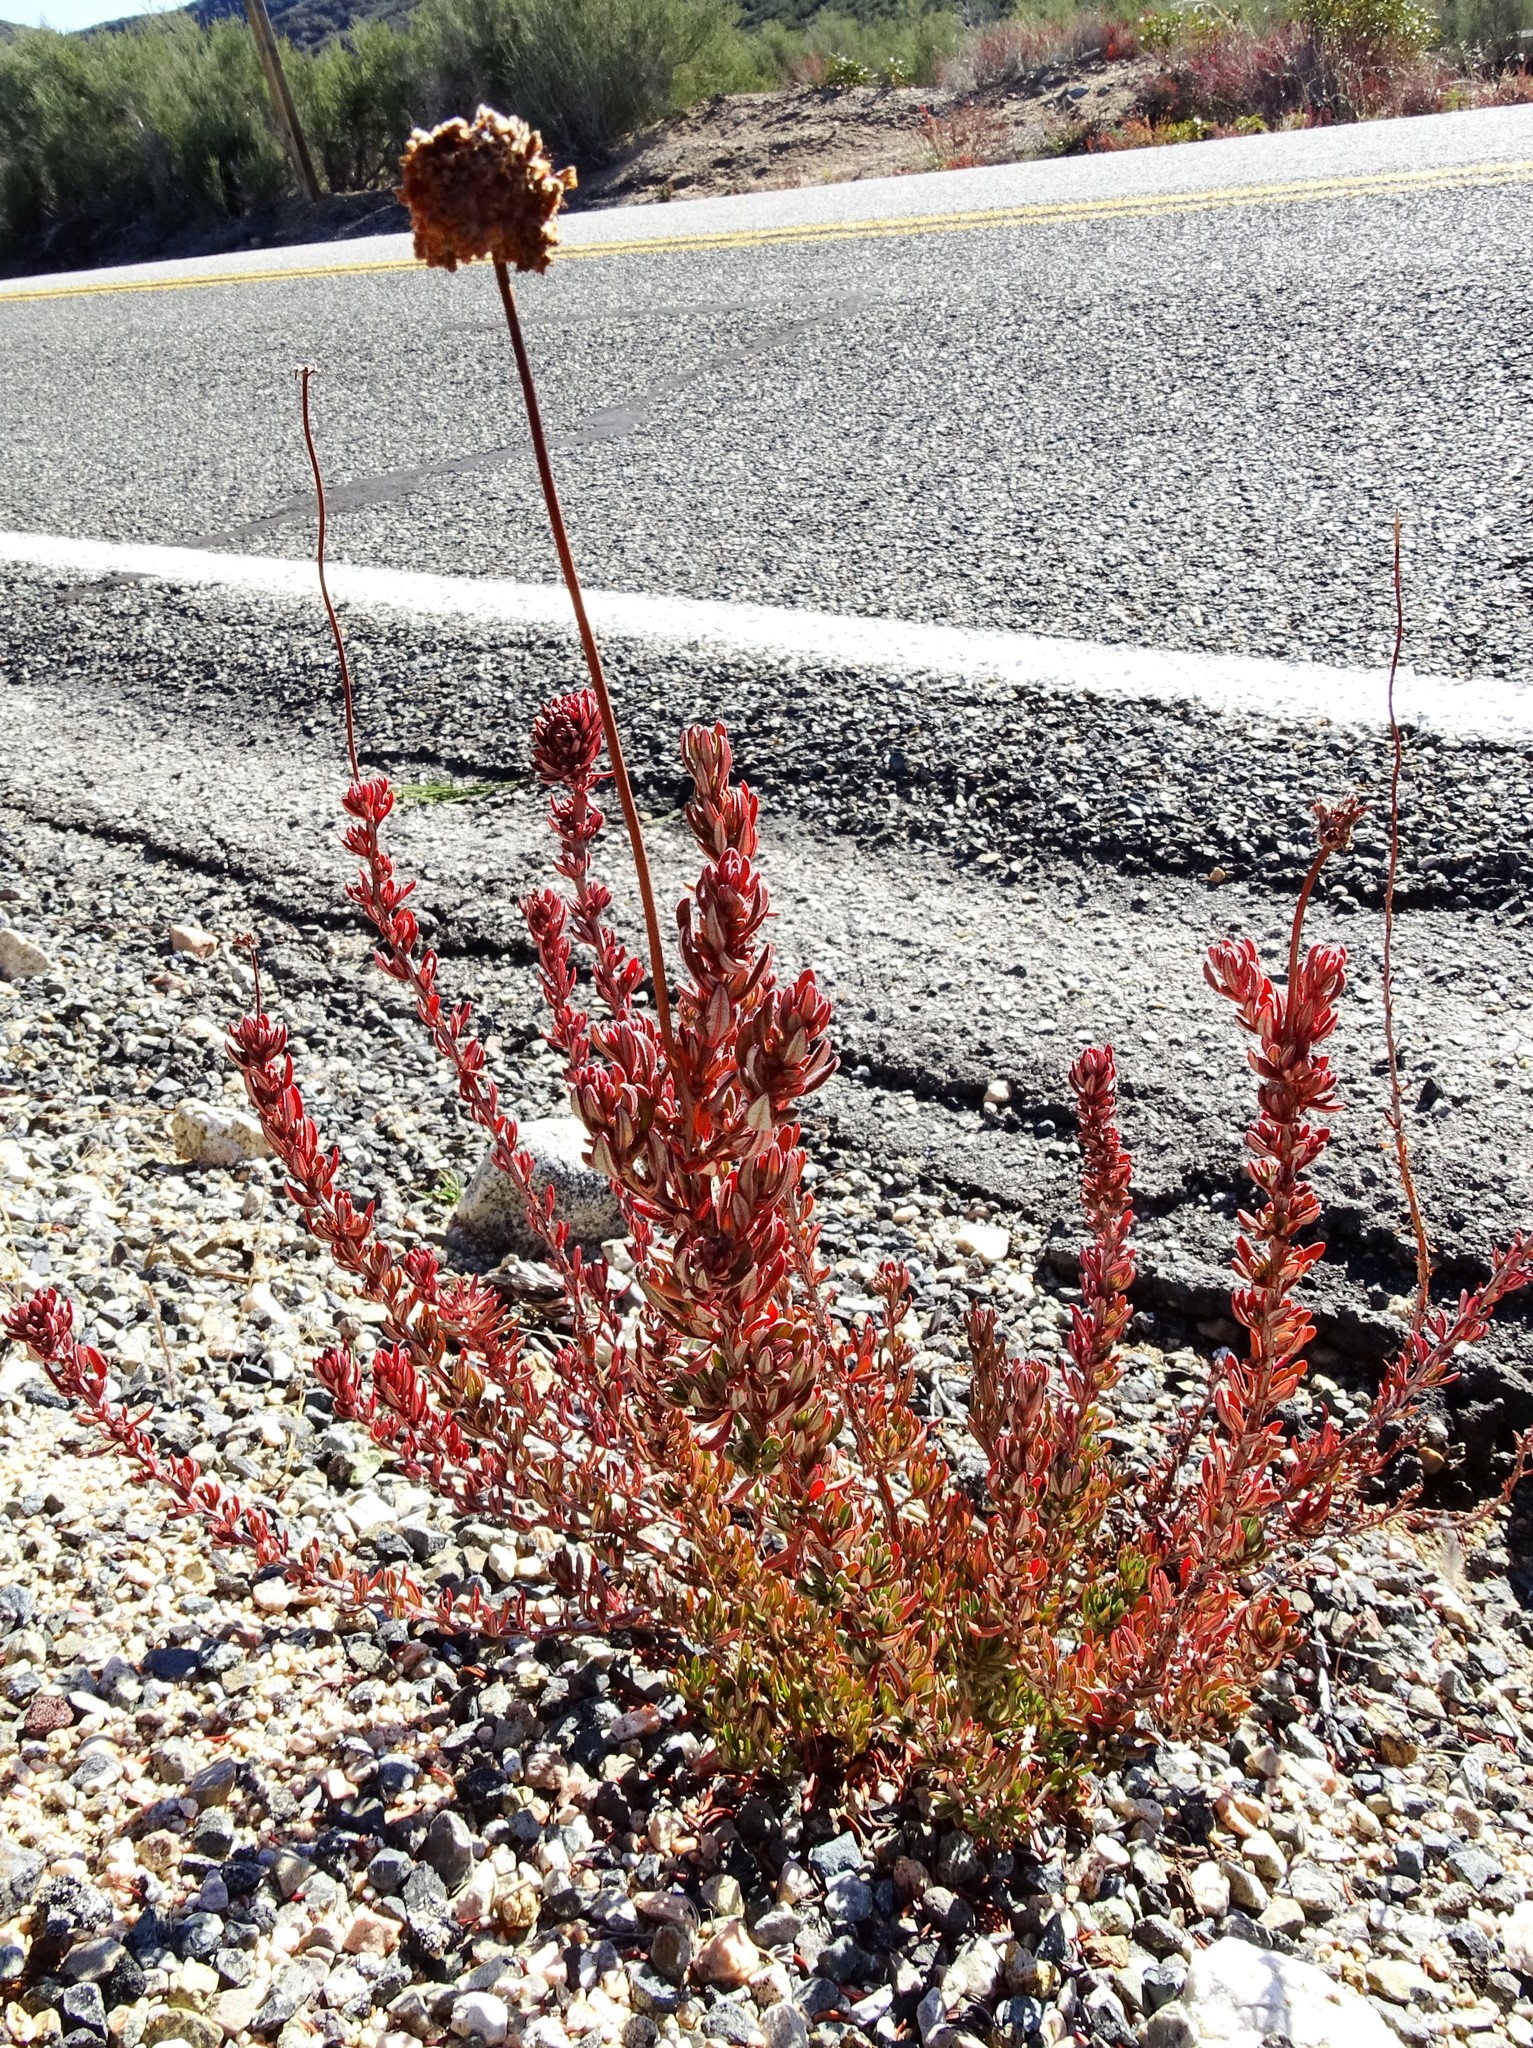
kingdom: Plantae
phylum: Tracheophyta
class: Magnoliopsida
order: Caryophyllales
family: Polygonaceae
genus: Eriogonum
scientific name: Eriogonum fasciculatum
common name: California wild buckwheat
